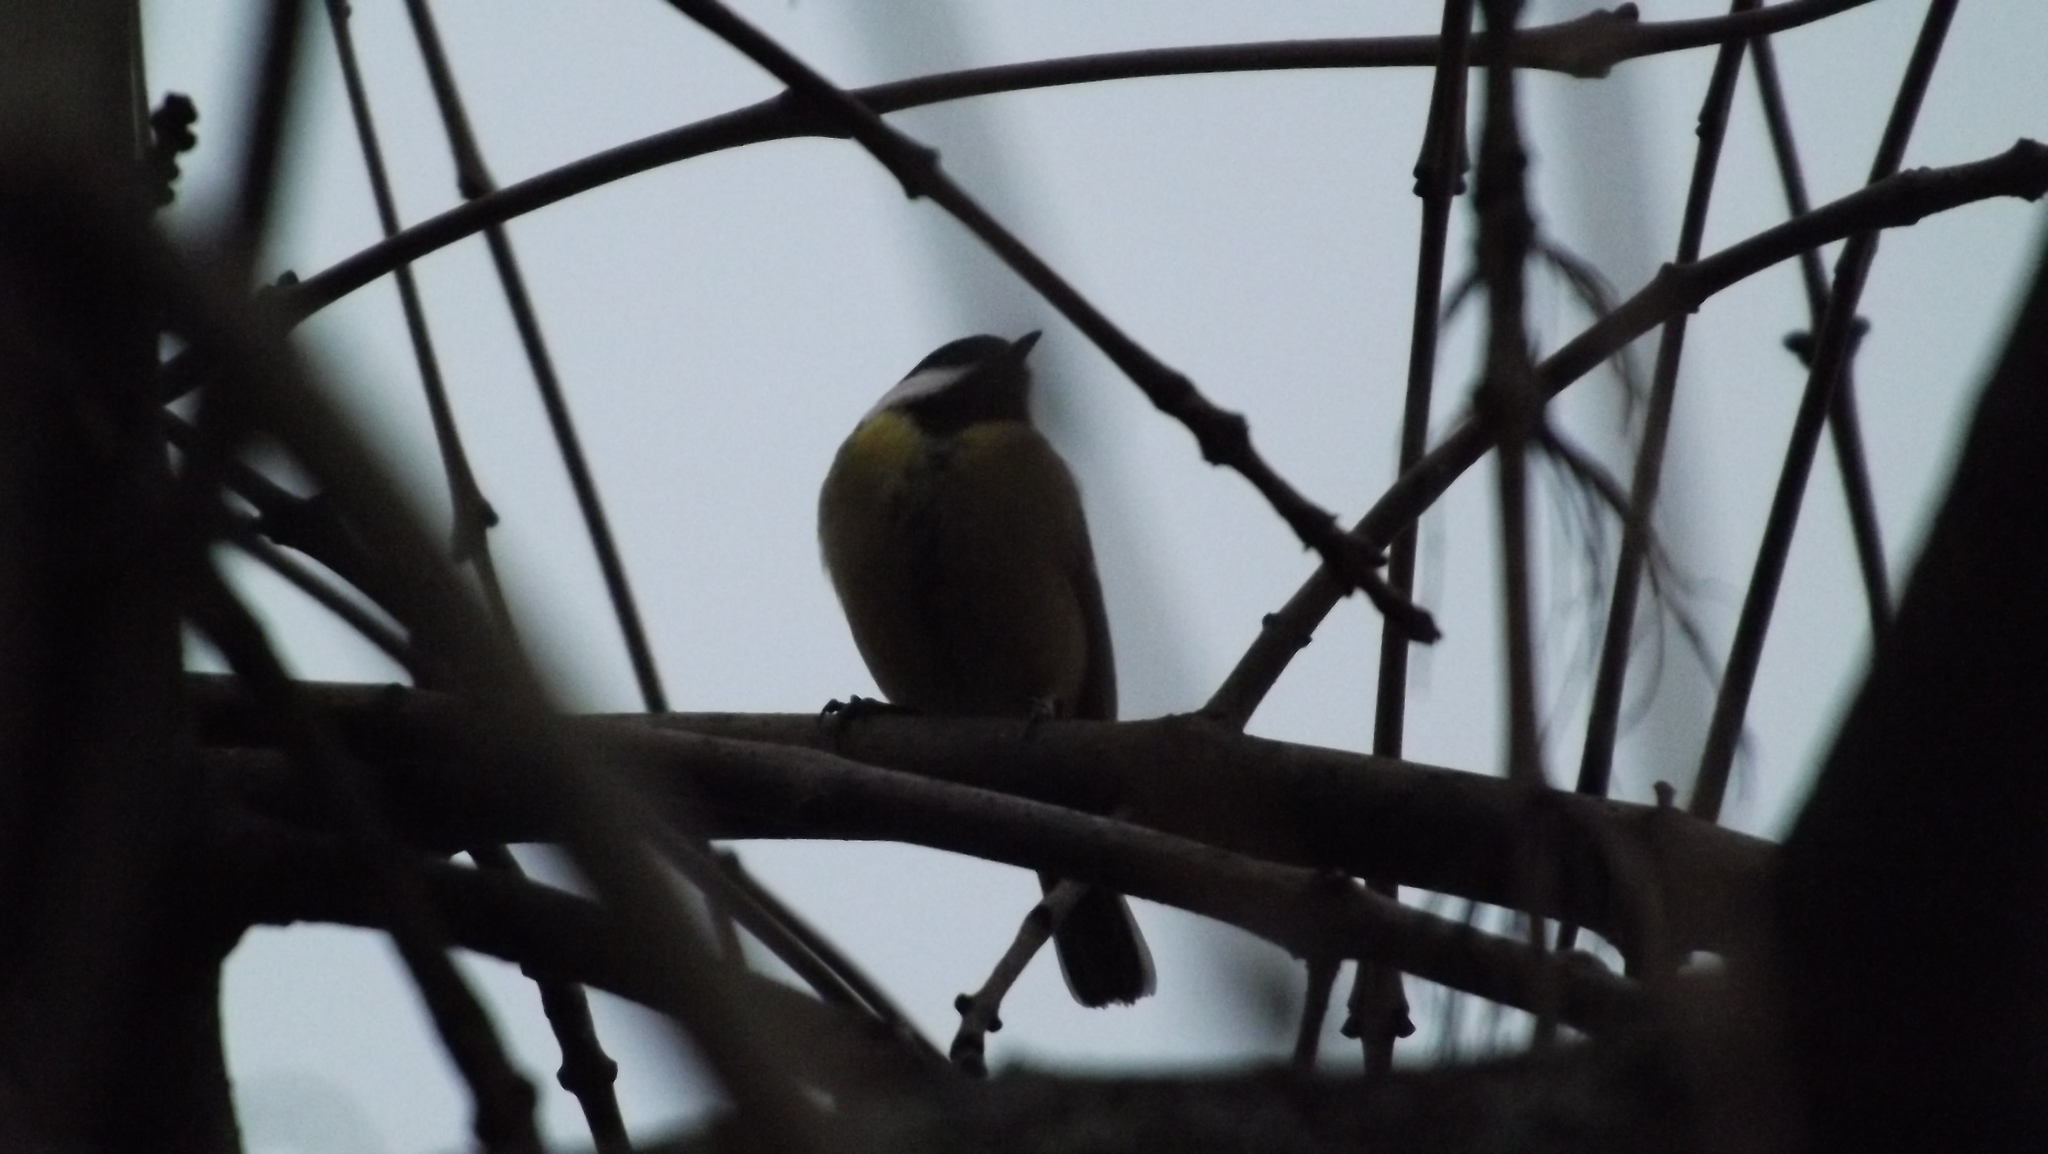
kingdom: Animalia
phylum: Chordata
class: Aves
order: Passeriformes
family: Paridae
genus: Parus
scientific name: Parus major
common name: Great tit
